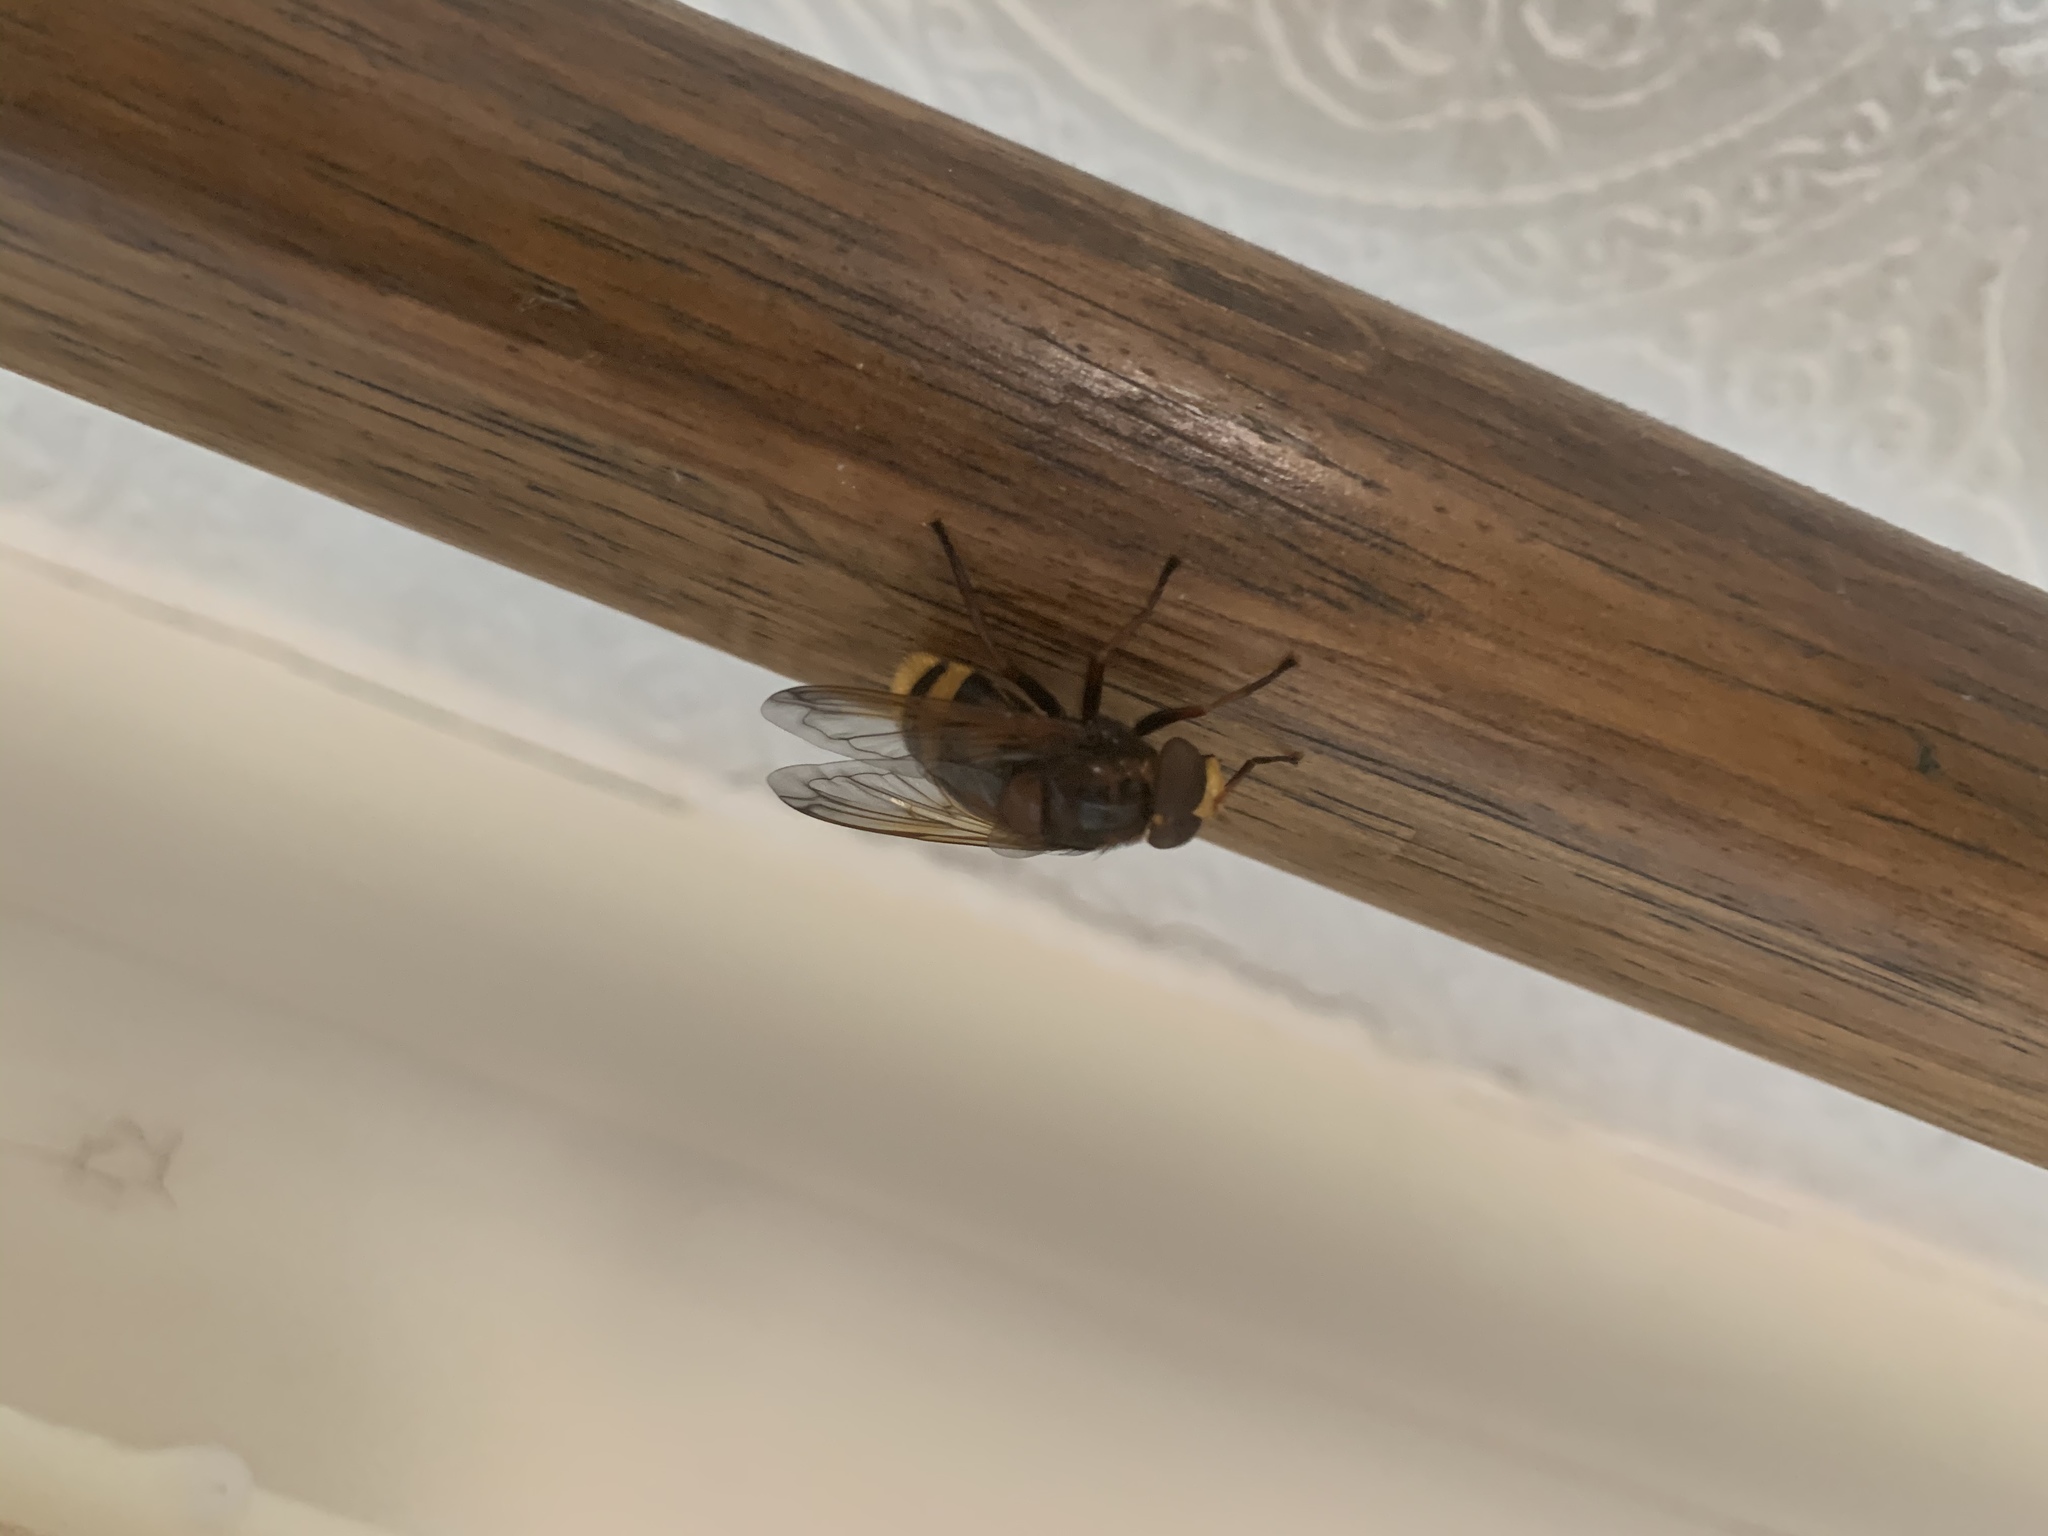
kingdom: Animalia
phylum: Arthropoda
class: Insecta
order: Diptera
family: Syrphidae
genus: Volucella
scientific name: Volucella zonaria
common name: Hornet hoverfly
